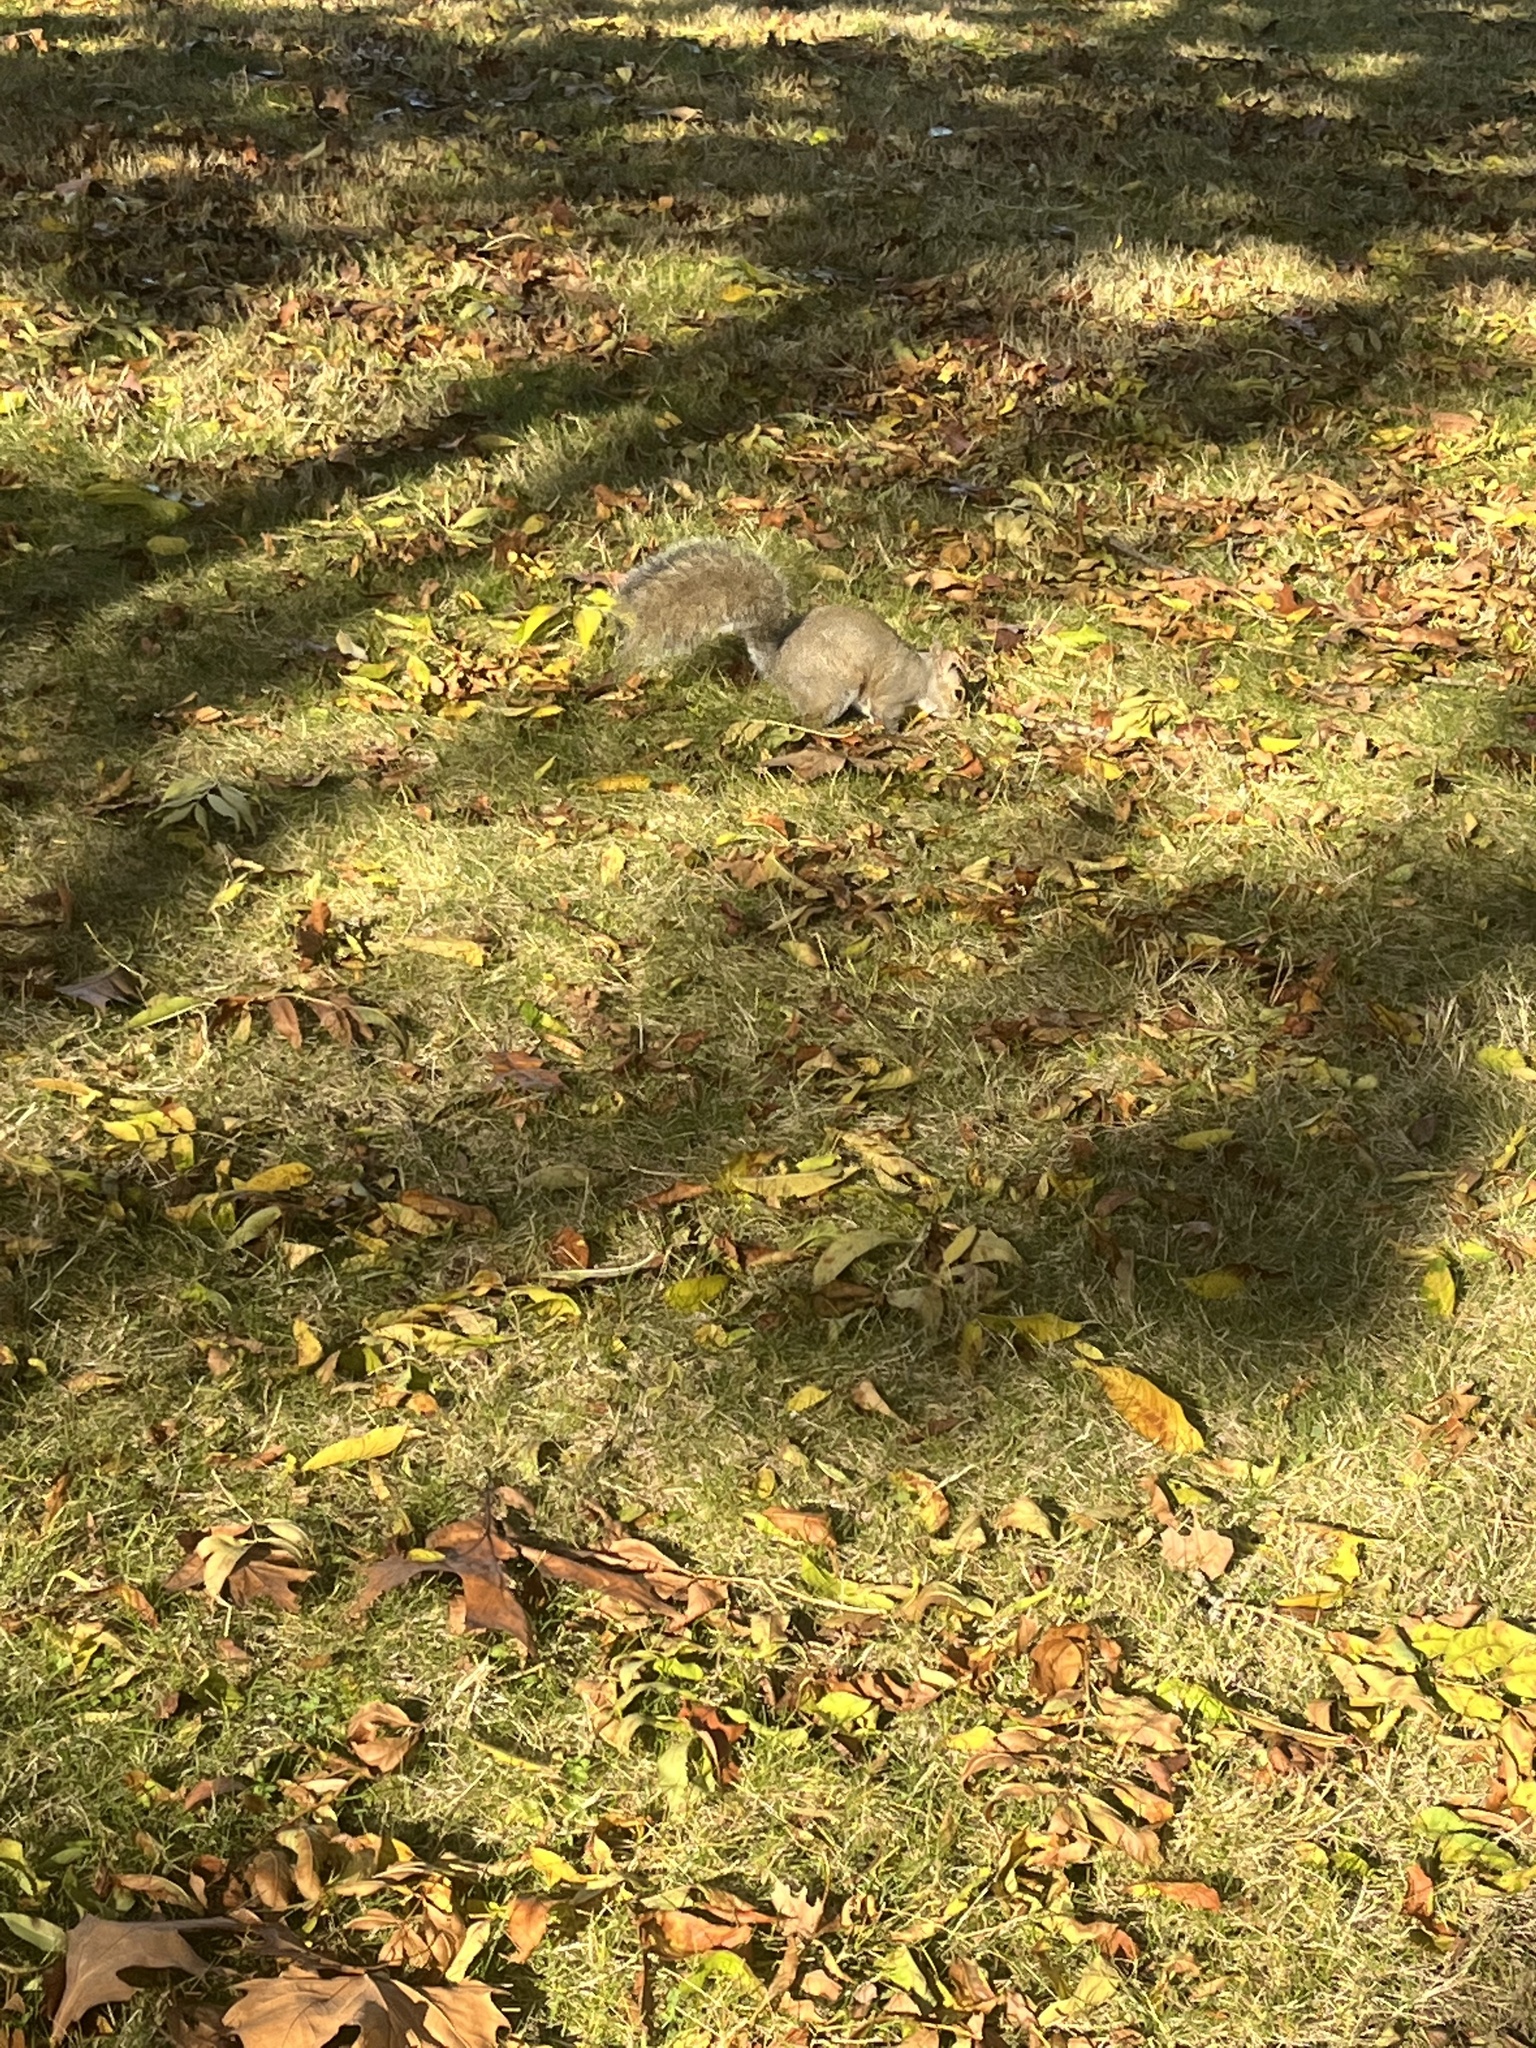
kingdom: Animalia
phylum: Chordata
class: Mammalia
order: Rodentia
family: Sciuridae
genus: Sciurus
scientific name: Sciurus carolinensis
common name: Eastern gray squirrel
